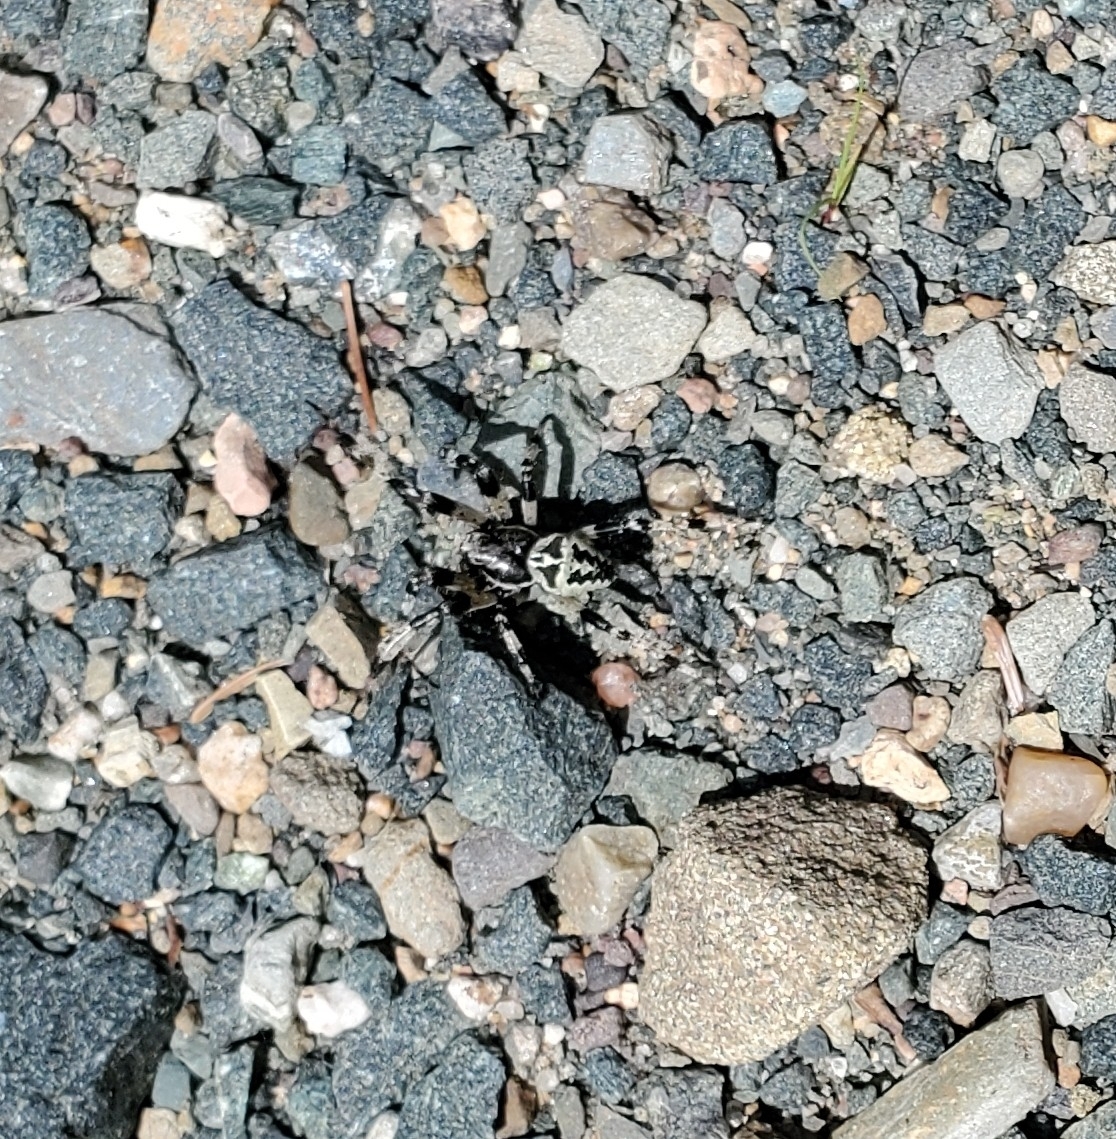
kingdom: Animalia
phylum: Arthropoda
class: Arachnida
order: Araneae
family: Araneidae
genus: Araneus
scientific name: Araneus nordmanni
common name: Nordmann's orbweaver
